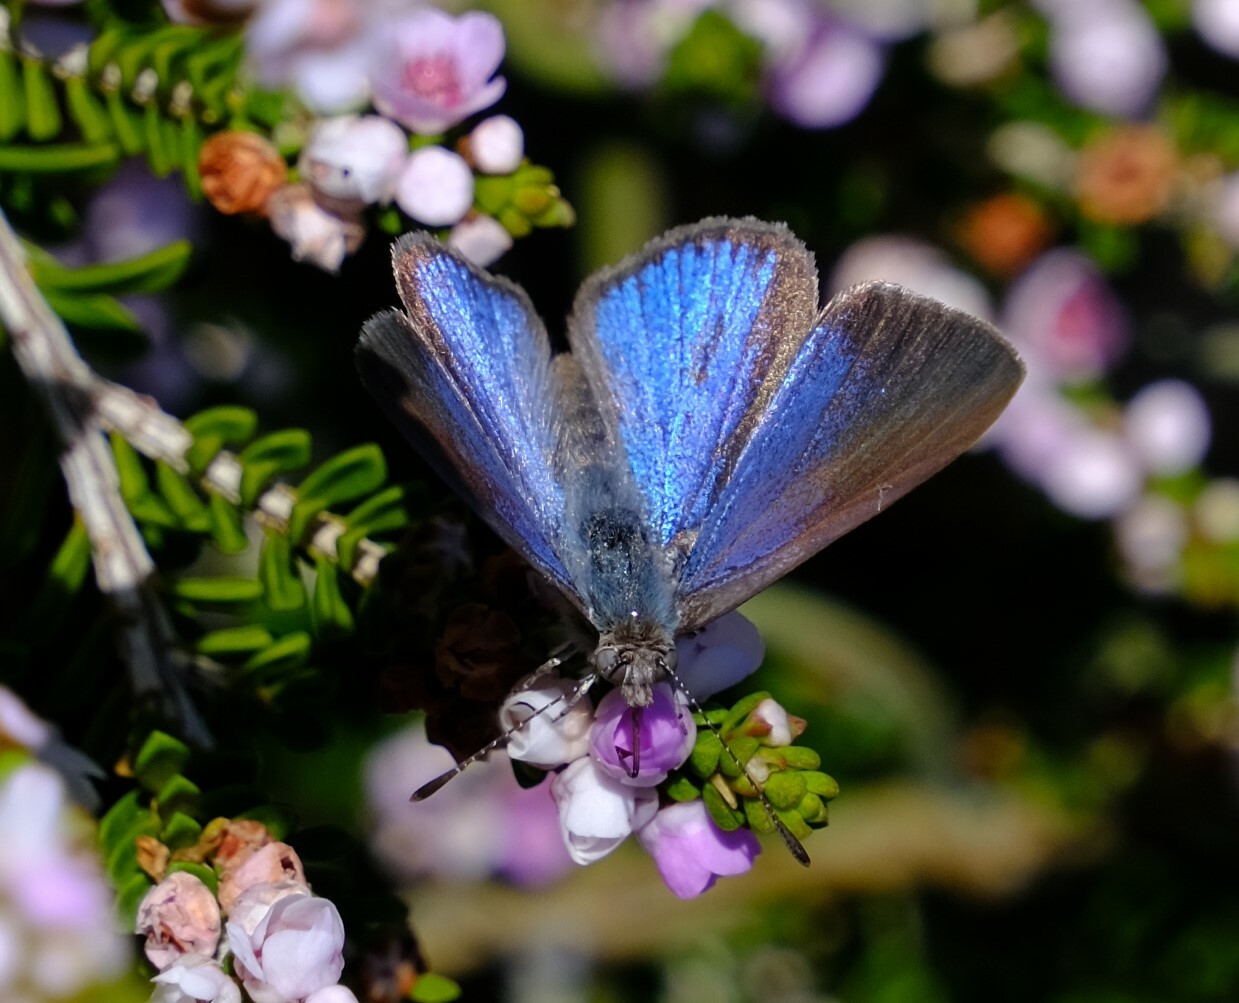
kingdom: Animalia
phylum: Arthropoda
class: Insecta
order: Lepidoptera
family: Lycaenidae
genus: Candalides
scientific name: Candalides
